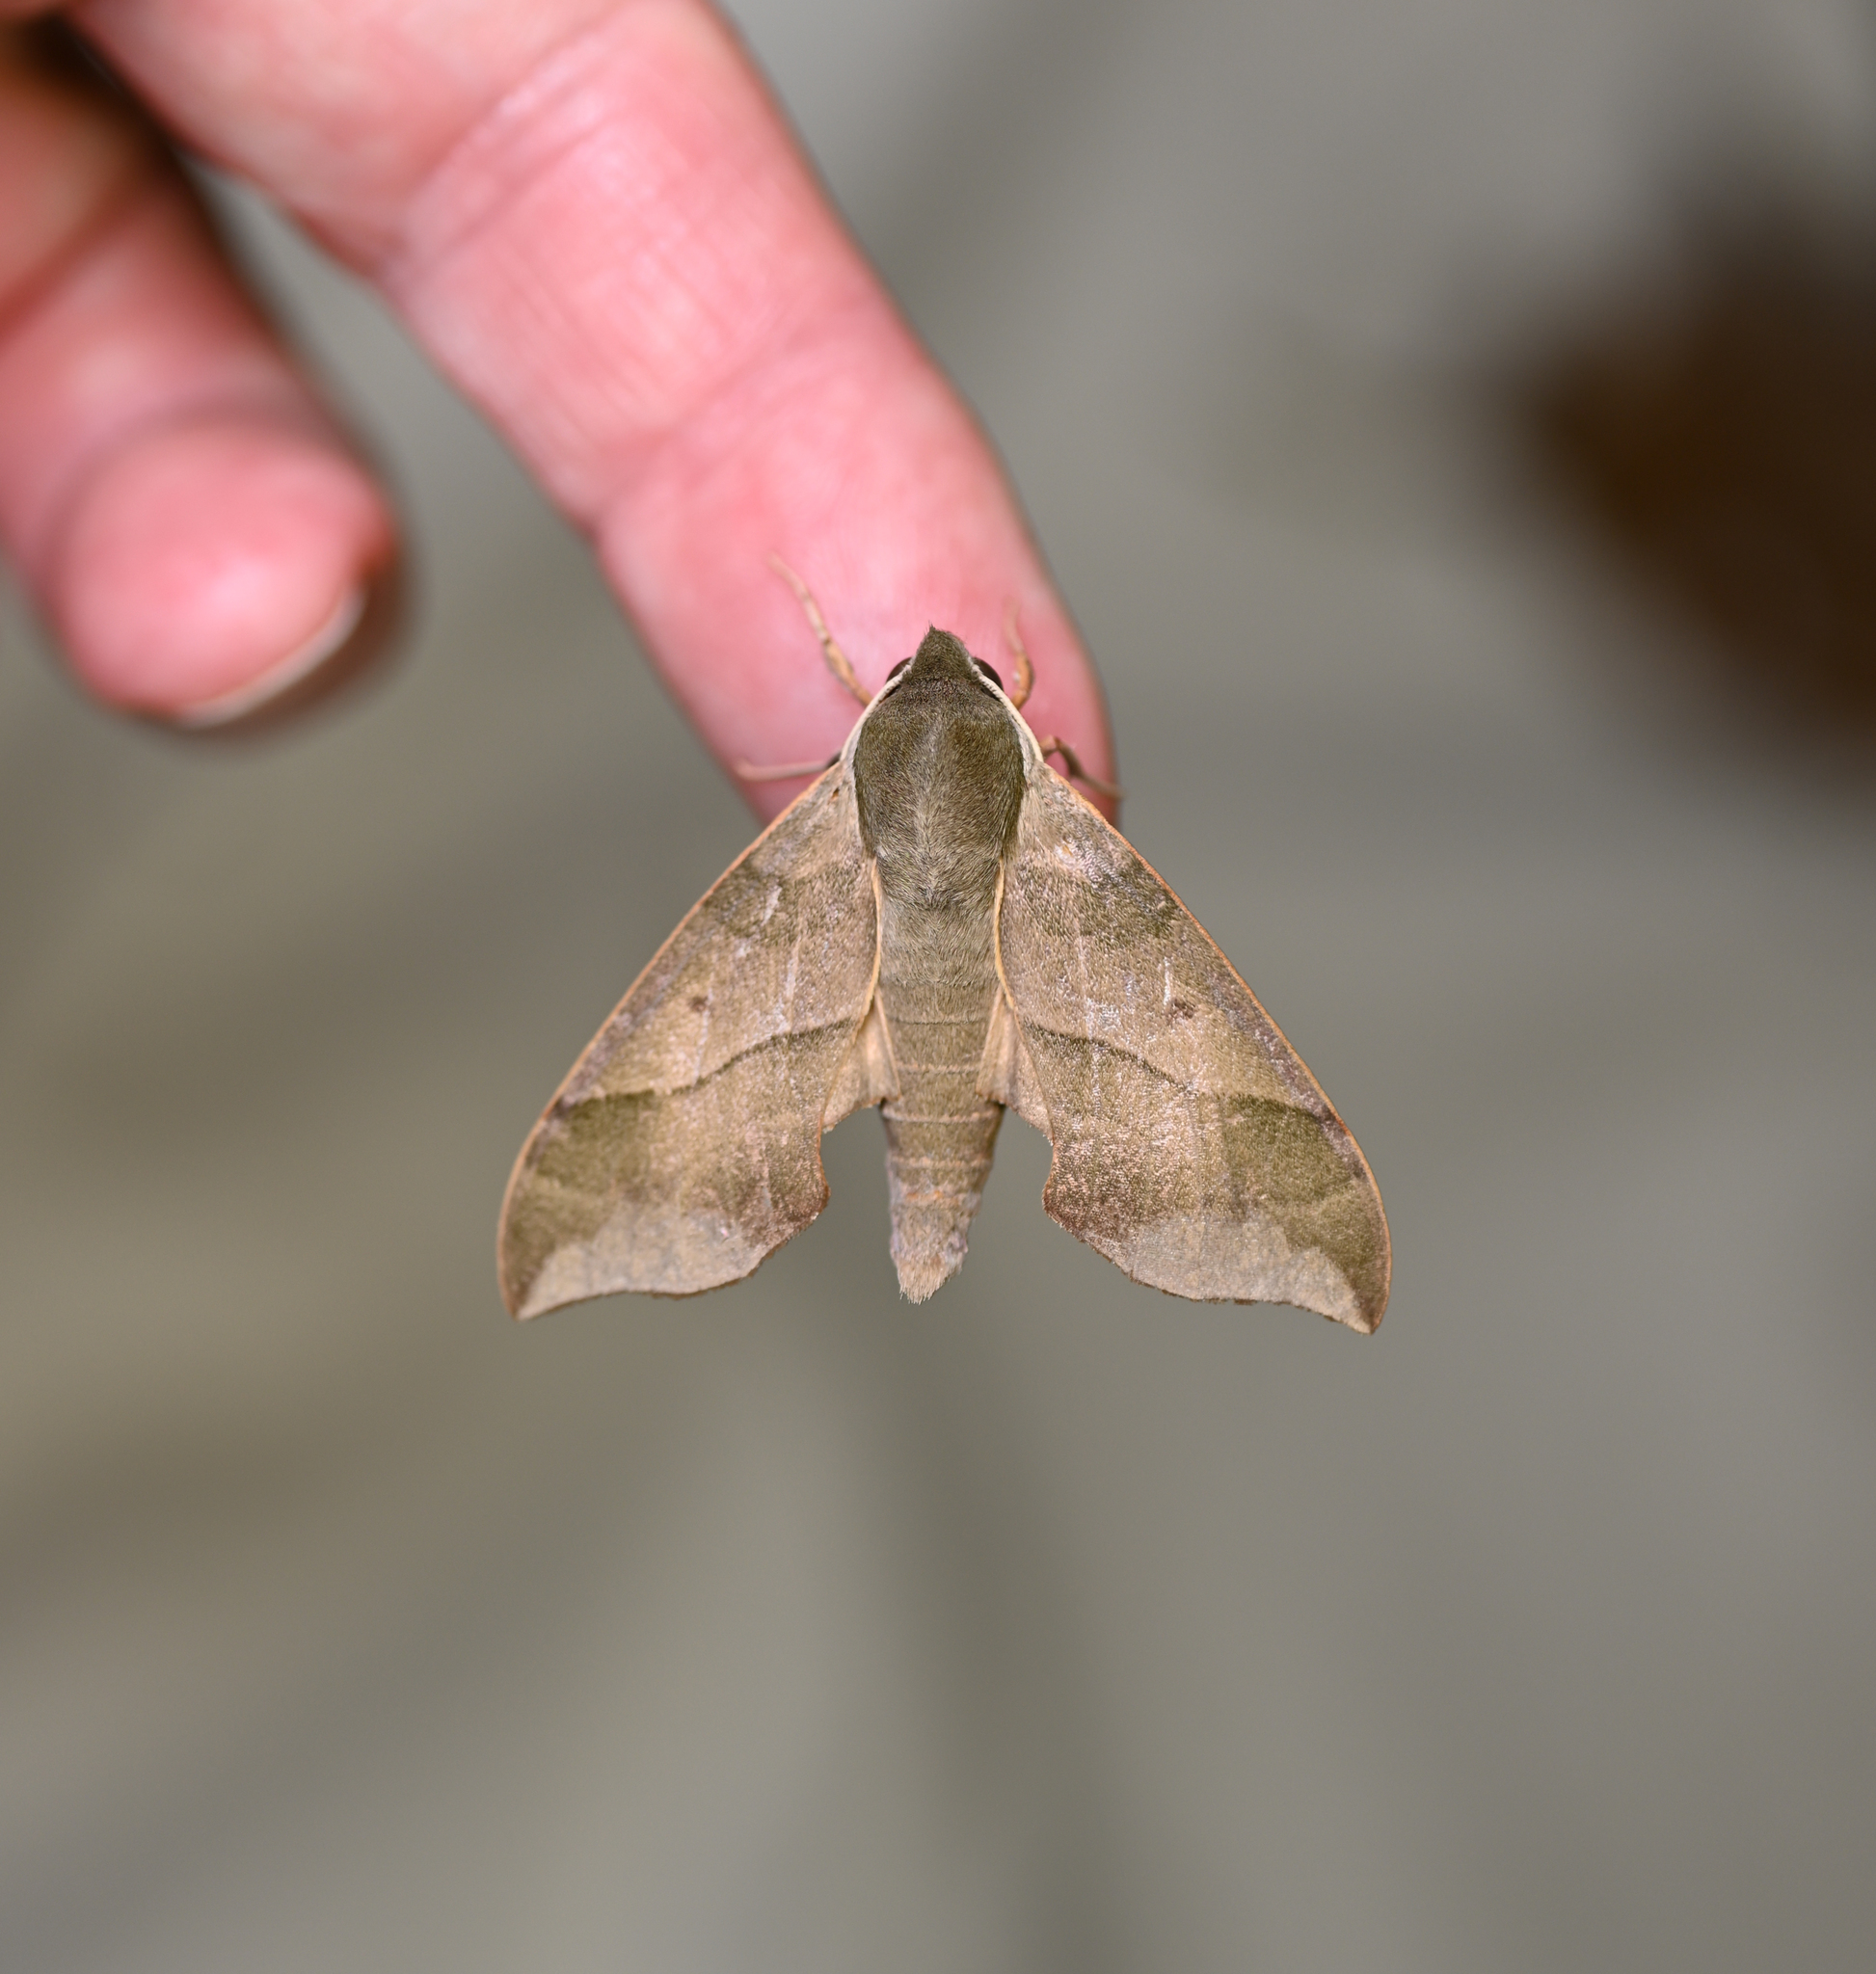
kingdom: Animalia
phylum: Arthropoda
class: Insecta
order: Lepidoptera
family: Sphingidae
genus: Darapsa
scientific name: Darapsa myron
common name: Hog sphinx
